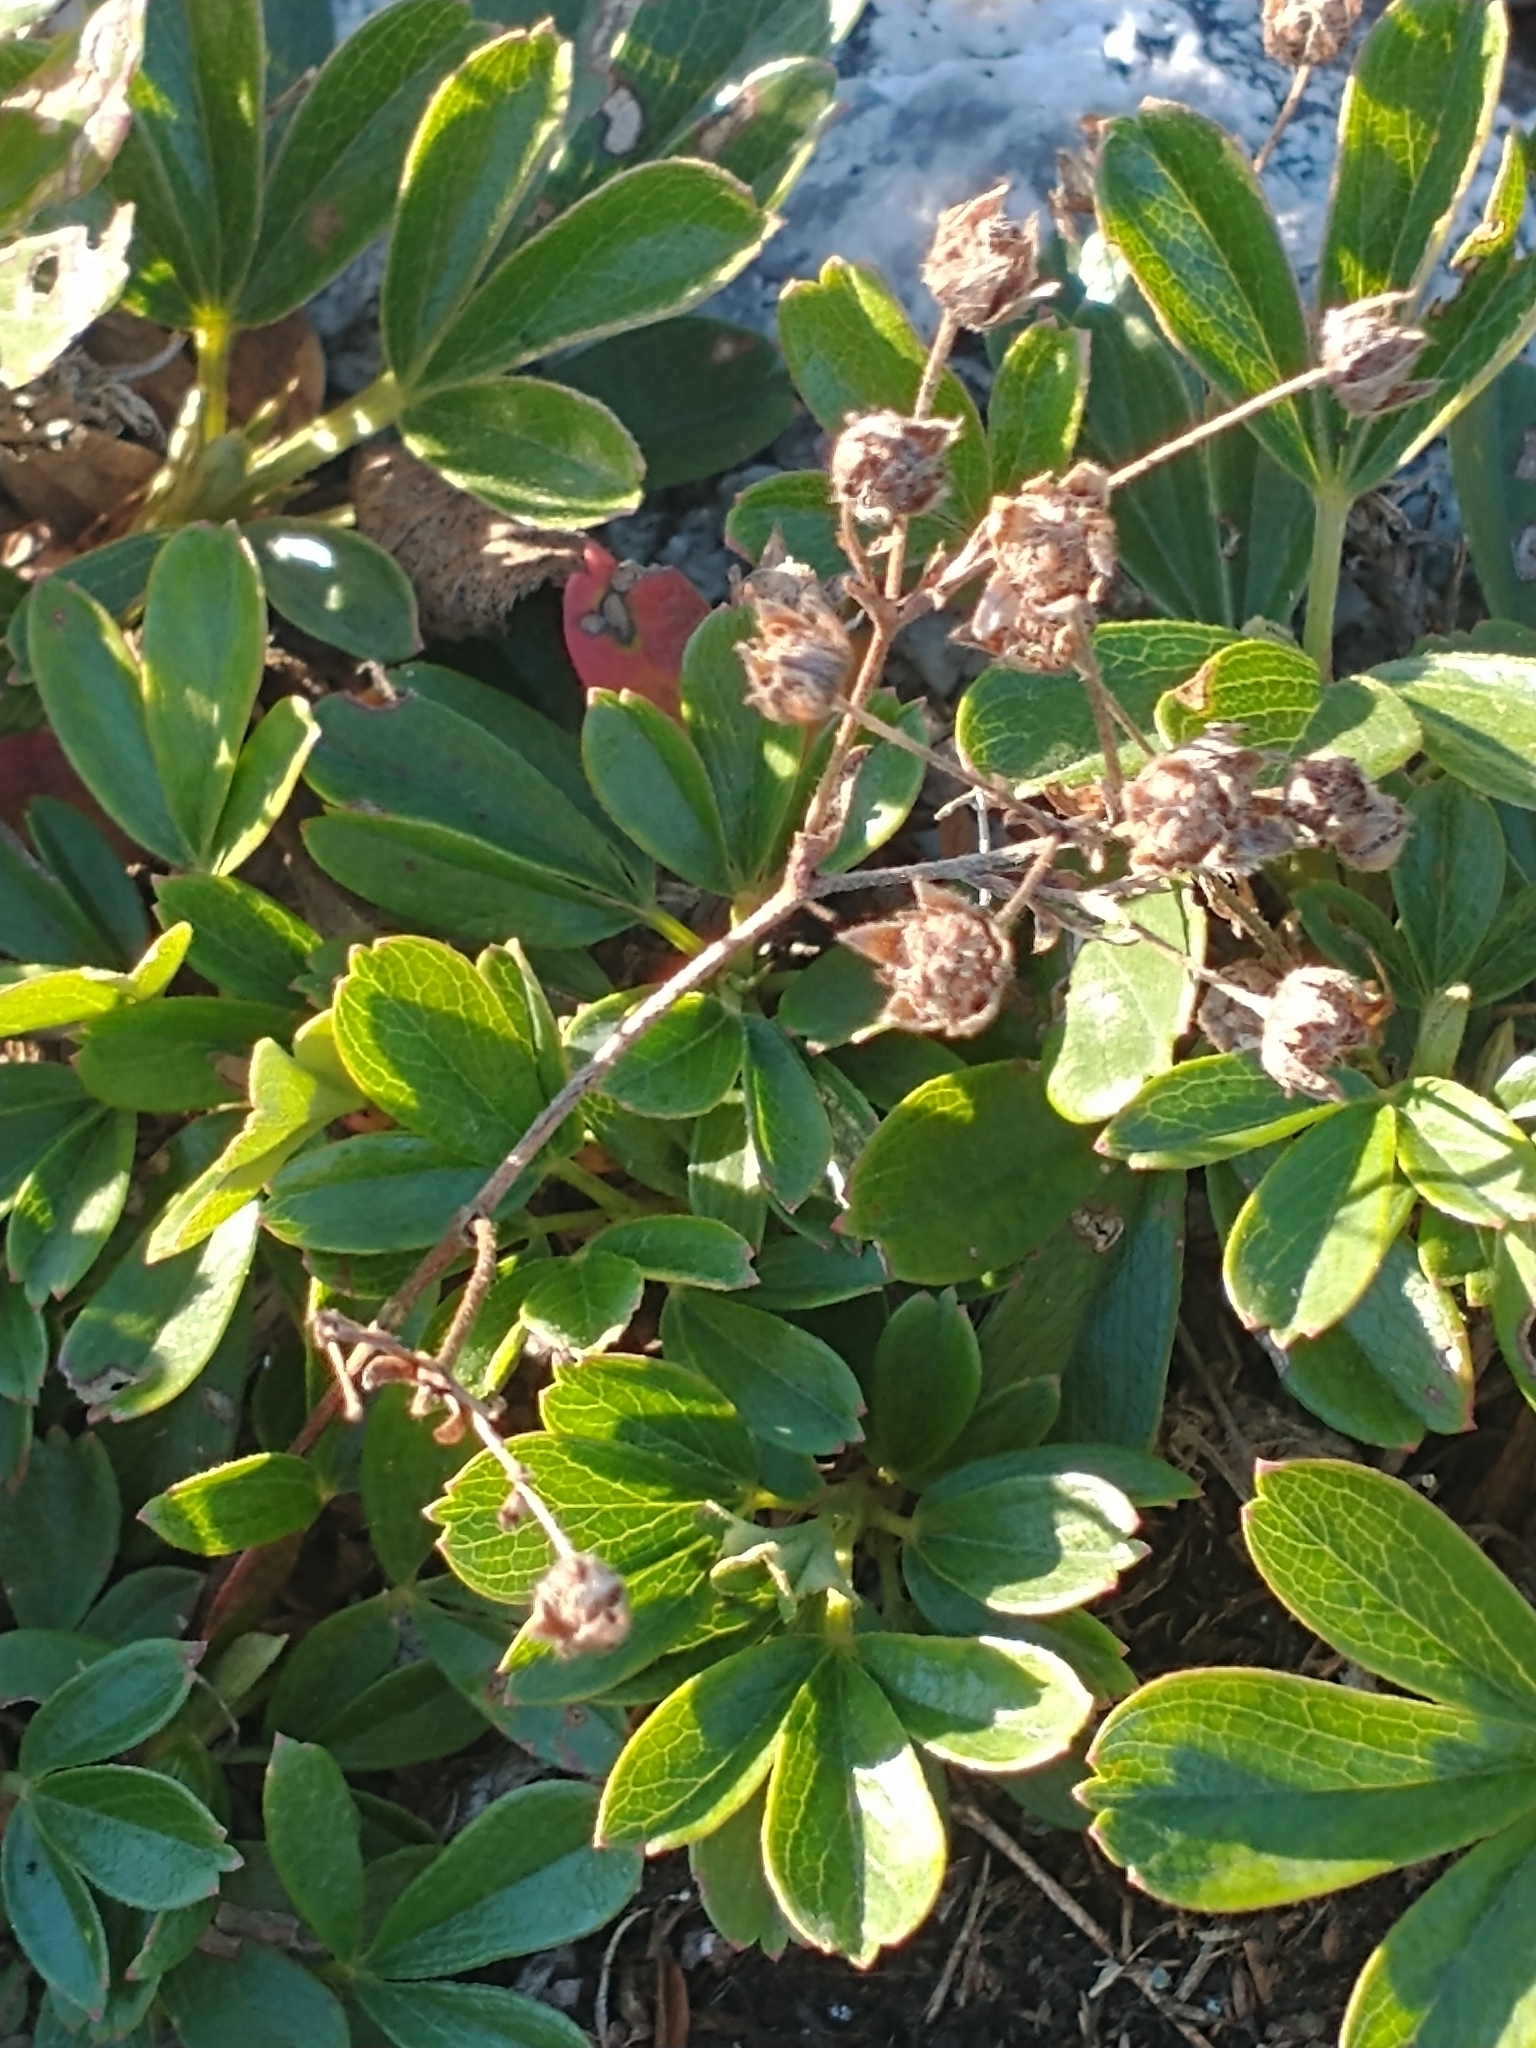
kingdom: Plantae
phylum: Tracheophyta
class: Magnoliopsida
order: Rosales
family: Rosaceae
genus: Sibbaldia
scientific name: Sibbaldia tridentata
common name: Three-toothed cinquefoil
